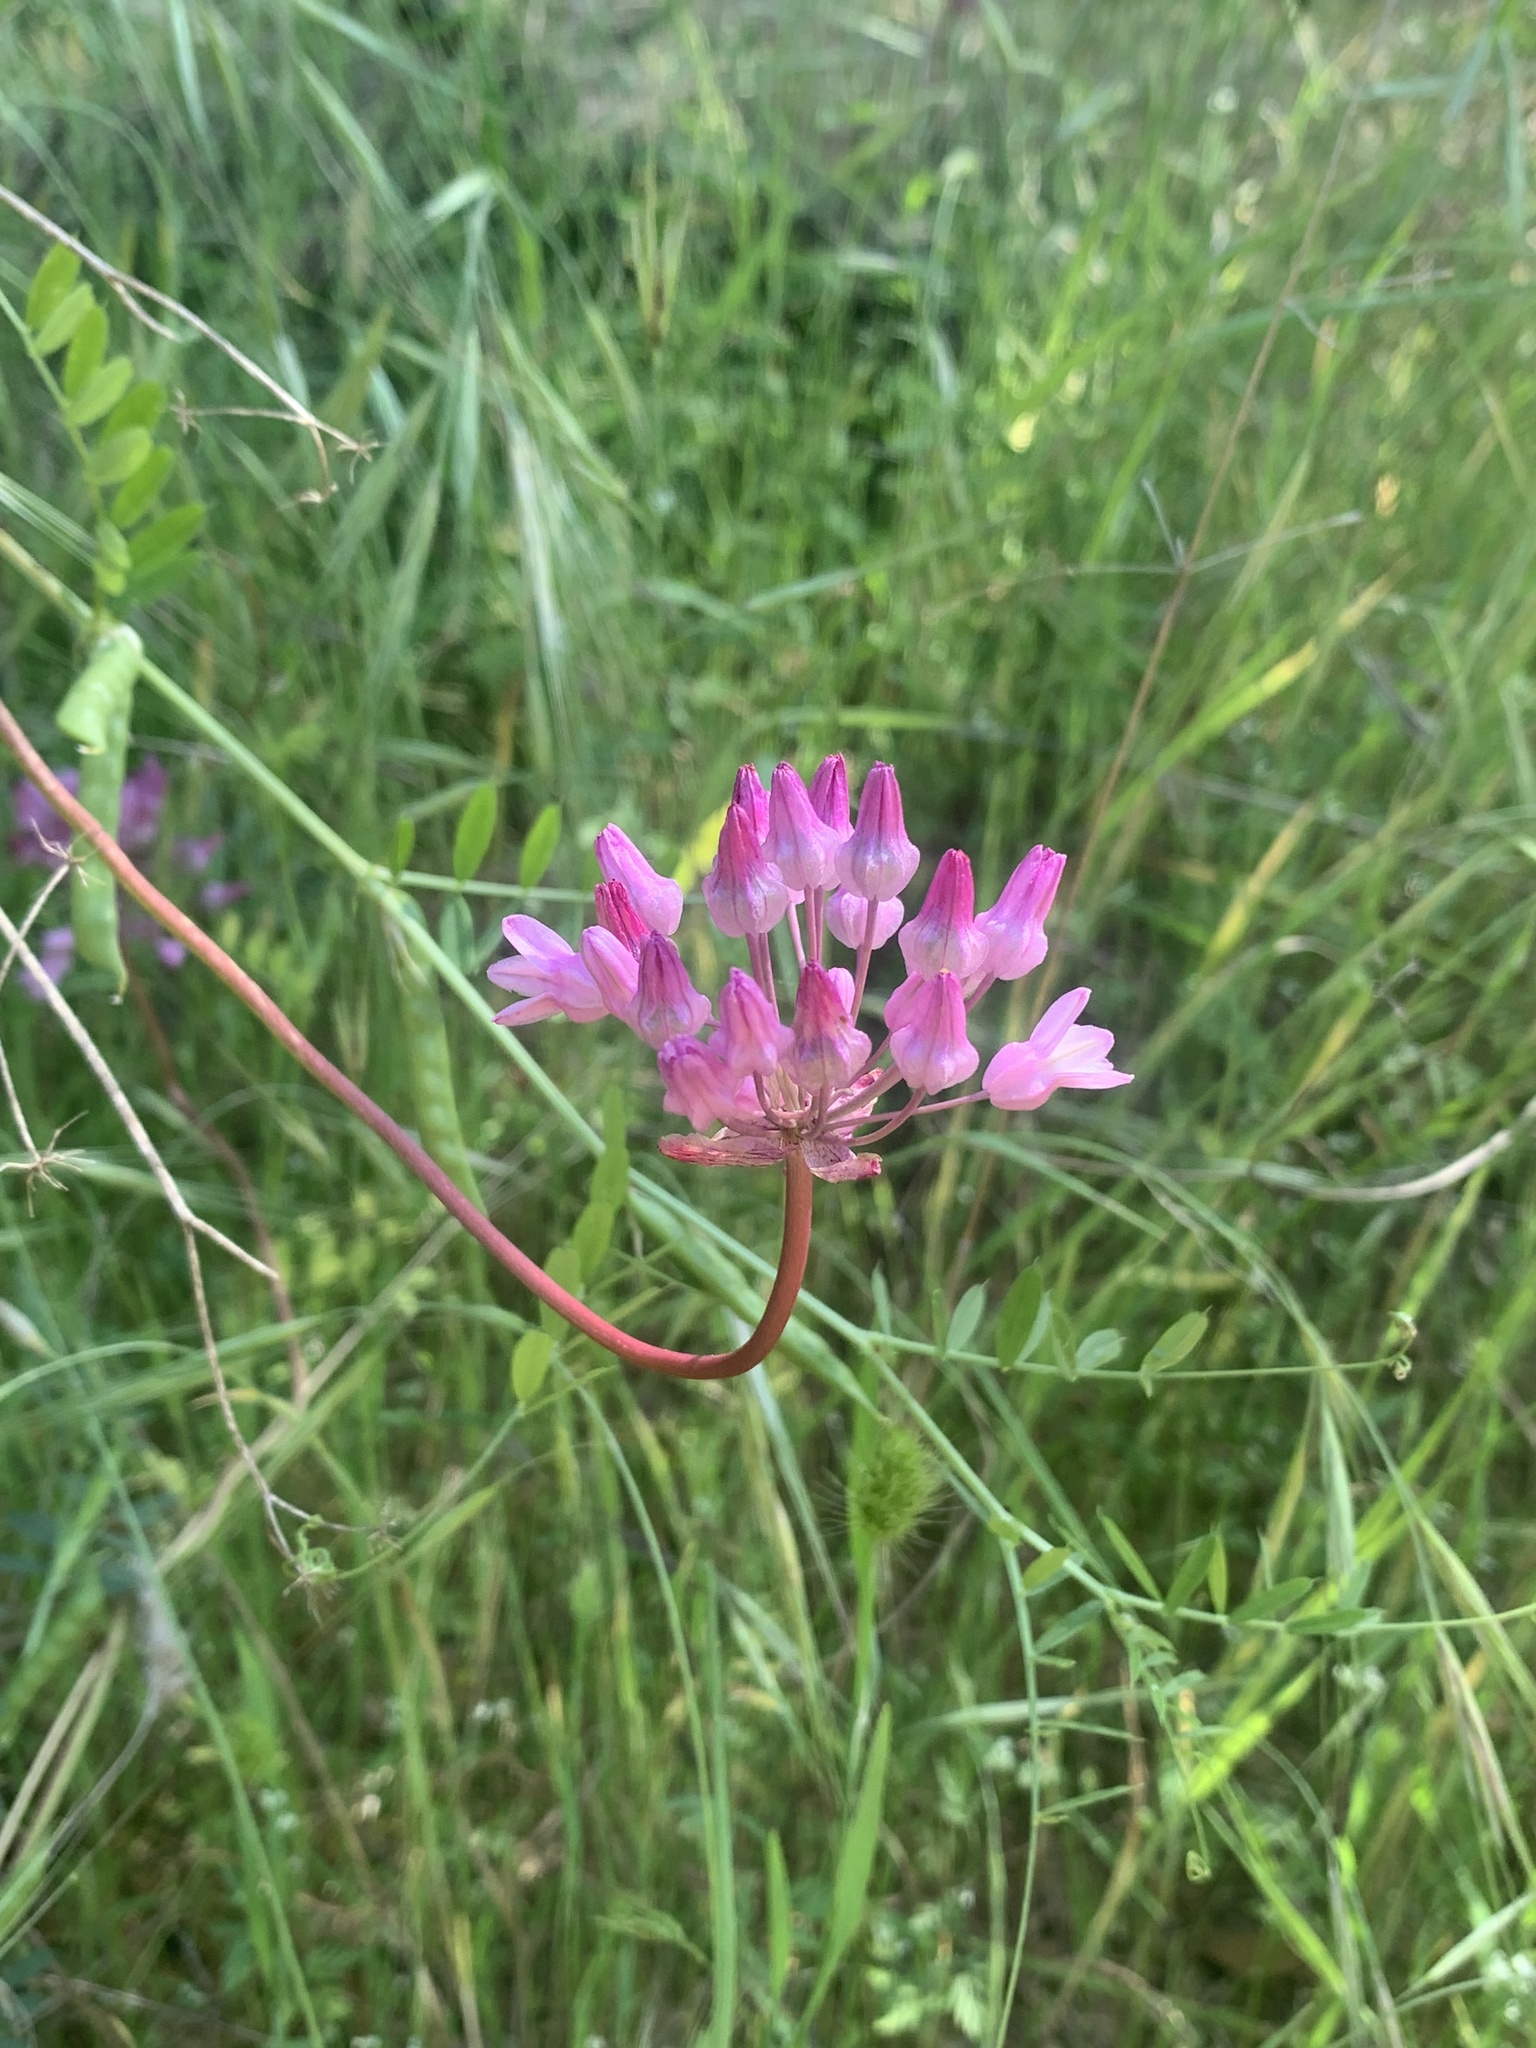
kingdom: Plantae
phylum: Tracheophyta
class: Liliopsida
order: Asparagales
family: Asparagaceae
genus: Dichelostemma
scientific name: Dichelostemma volubile
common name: Trining brodiaea
